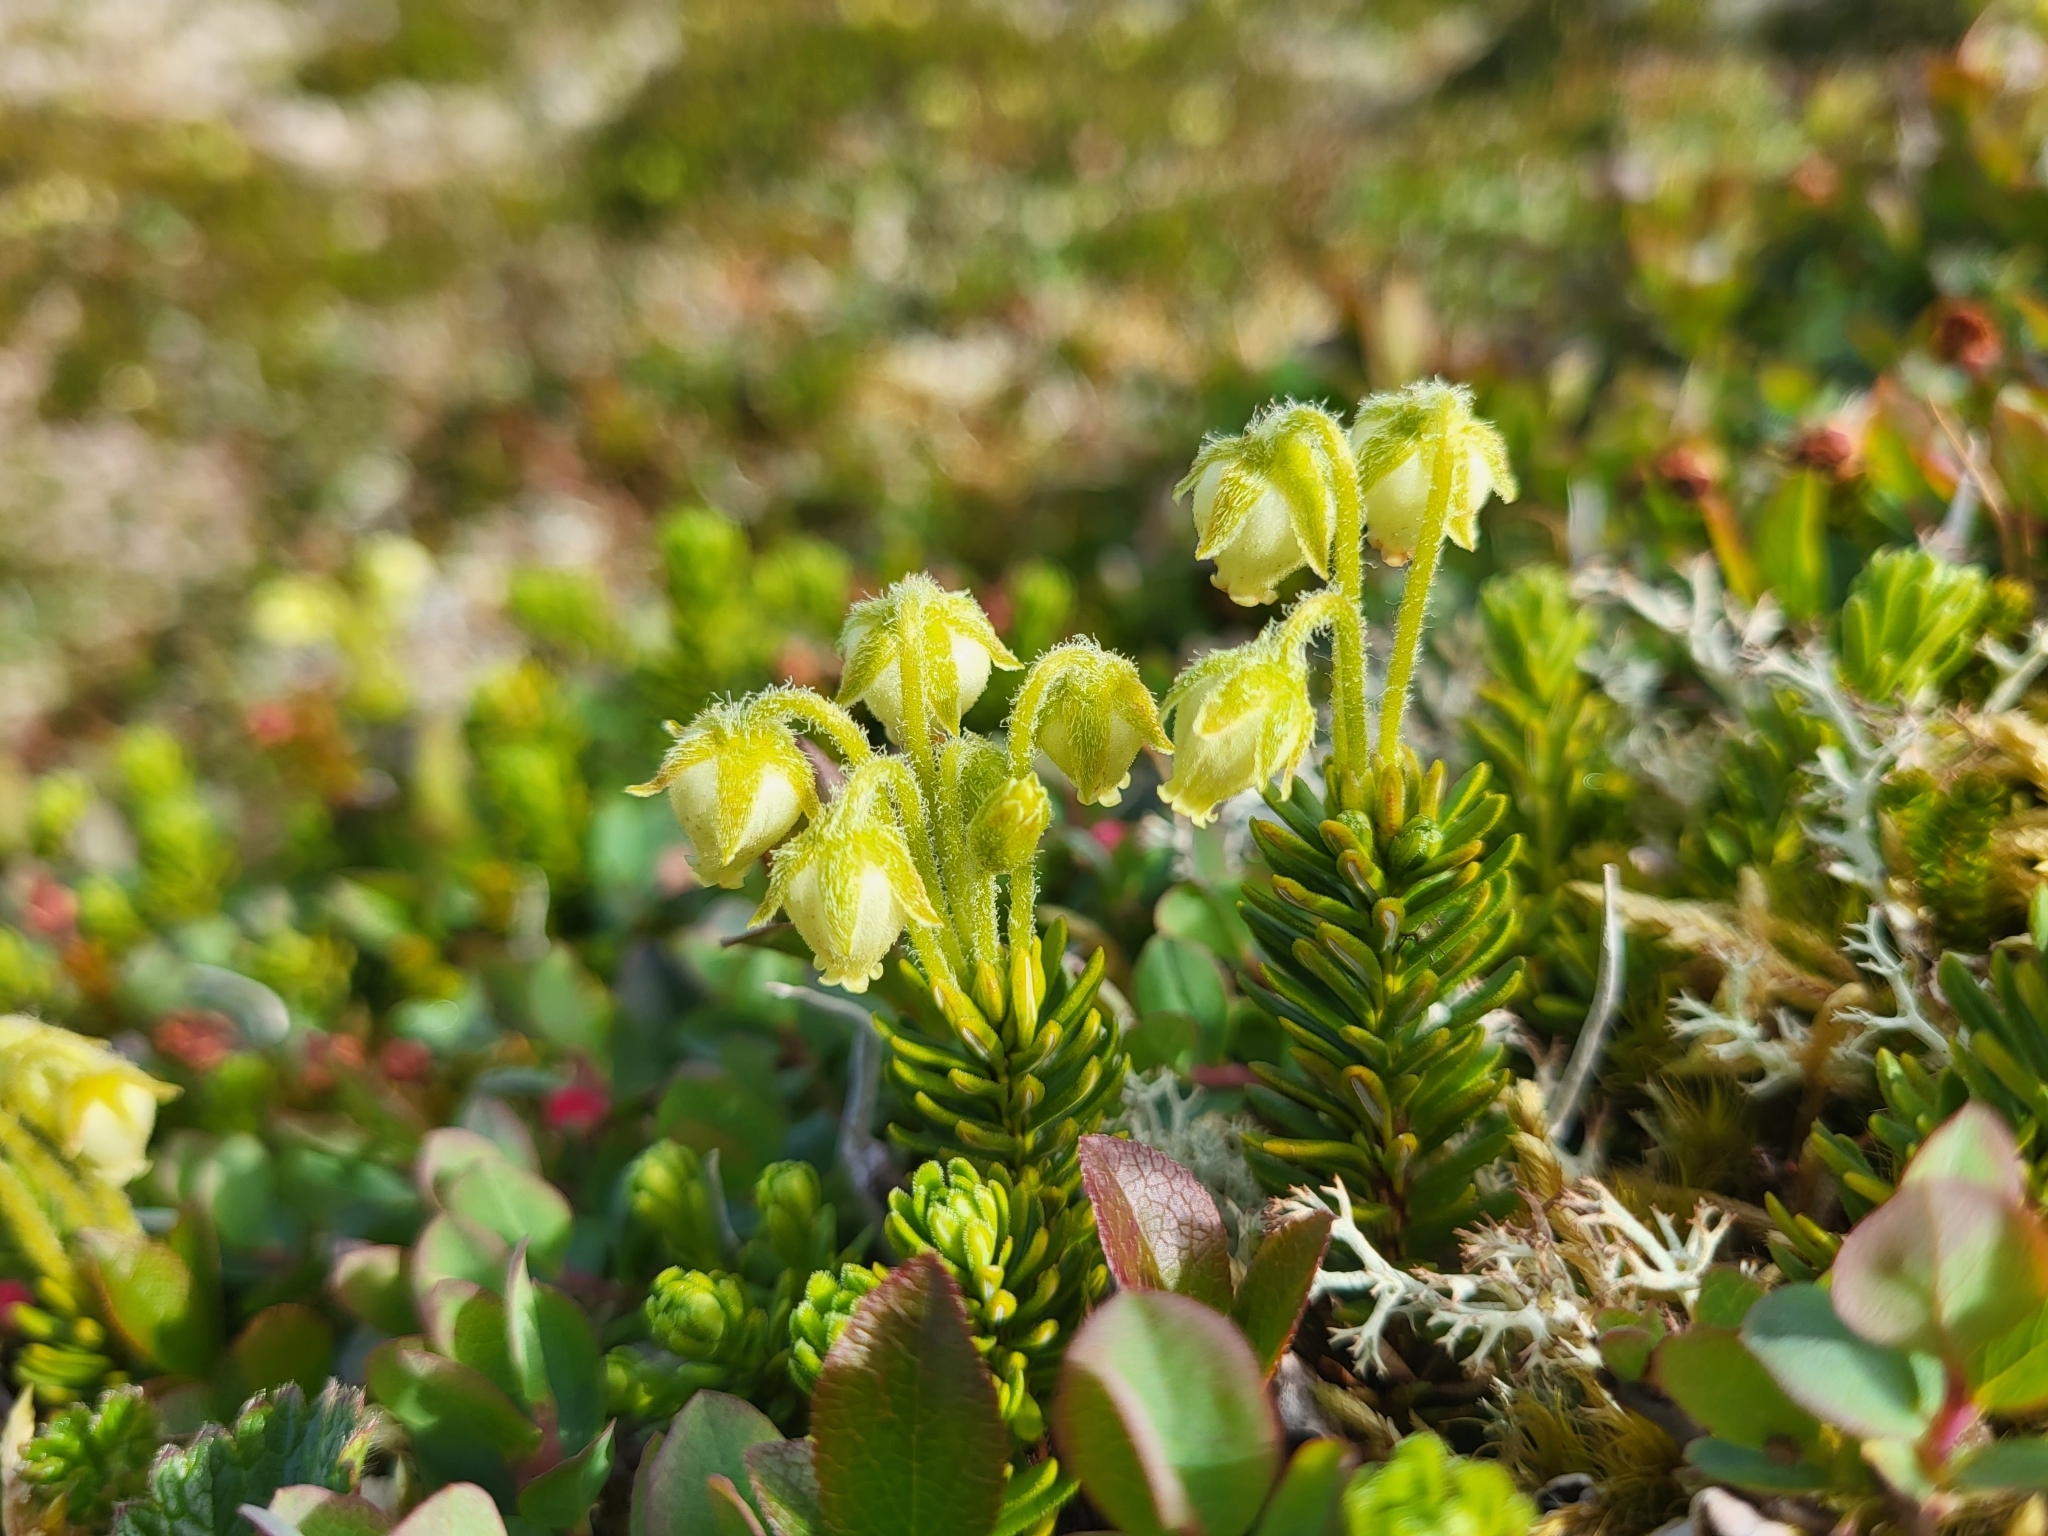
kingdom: Plantae
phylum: Tracheophyta
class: Magnoliopsida
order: Ericales
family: Ericaceae
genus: Phyllodoce
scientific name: Phyllodoce glanduliflora
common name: Cream mountain heather
